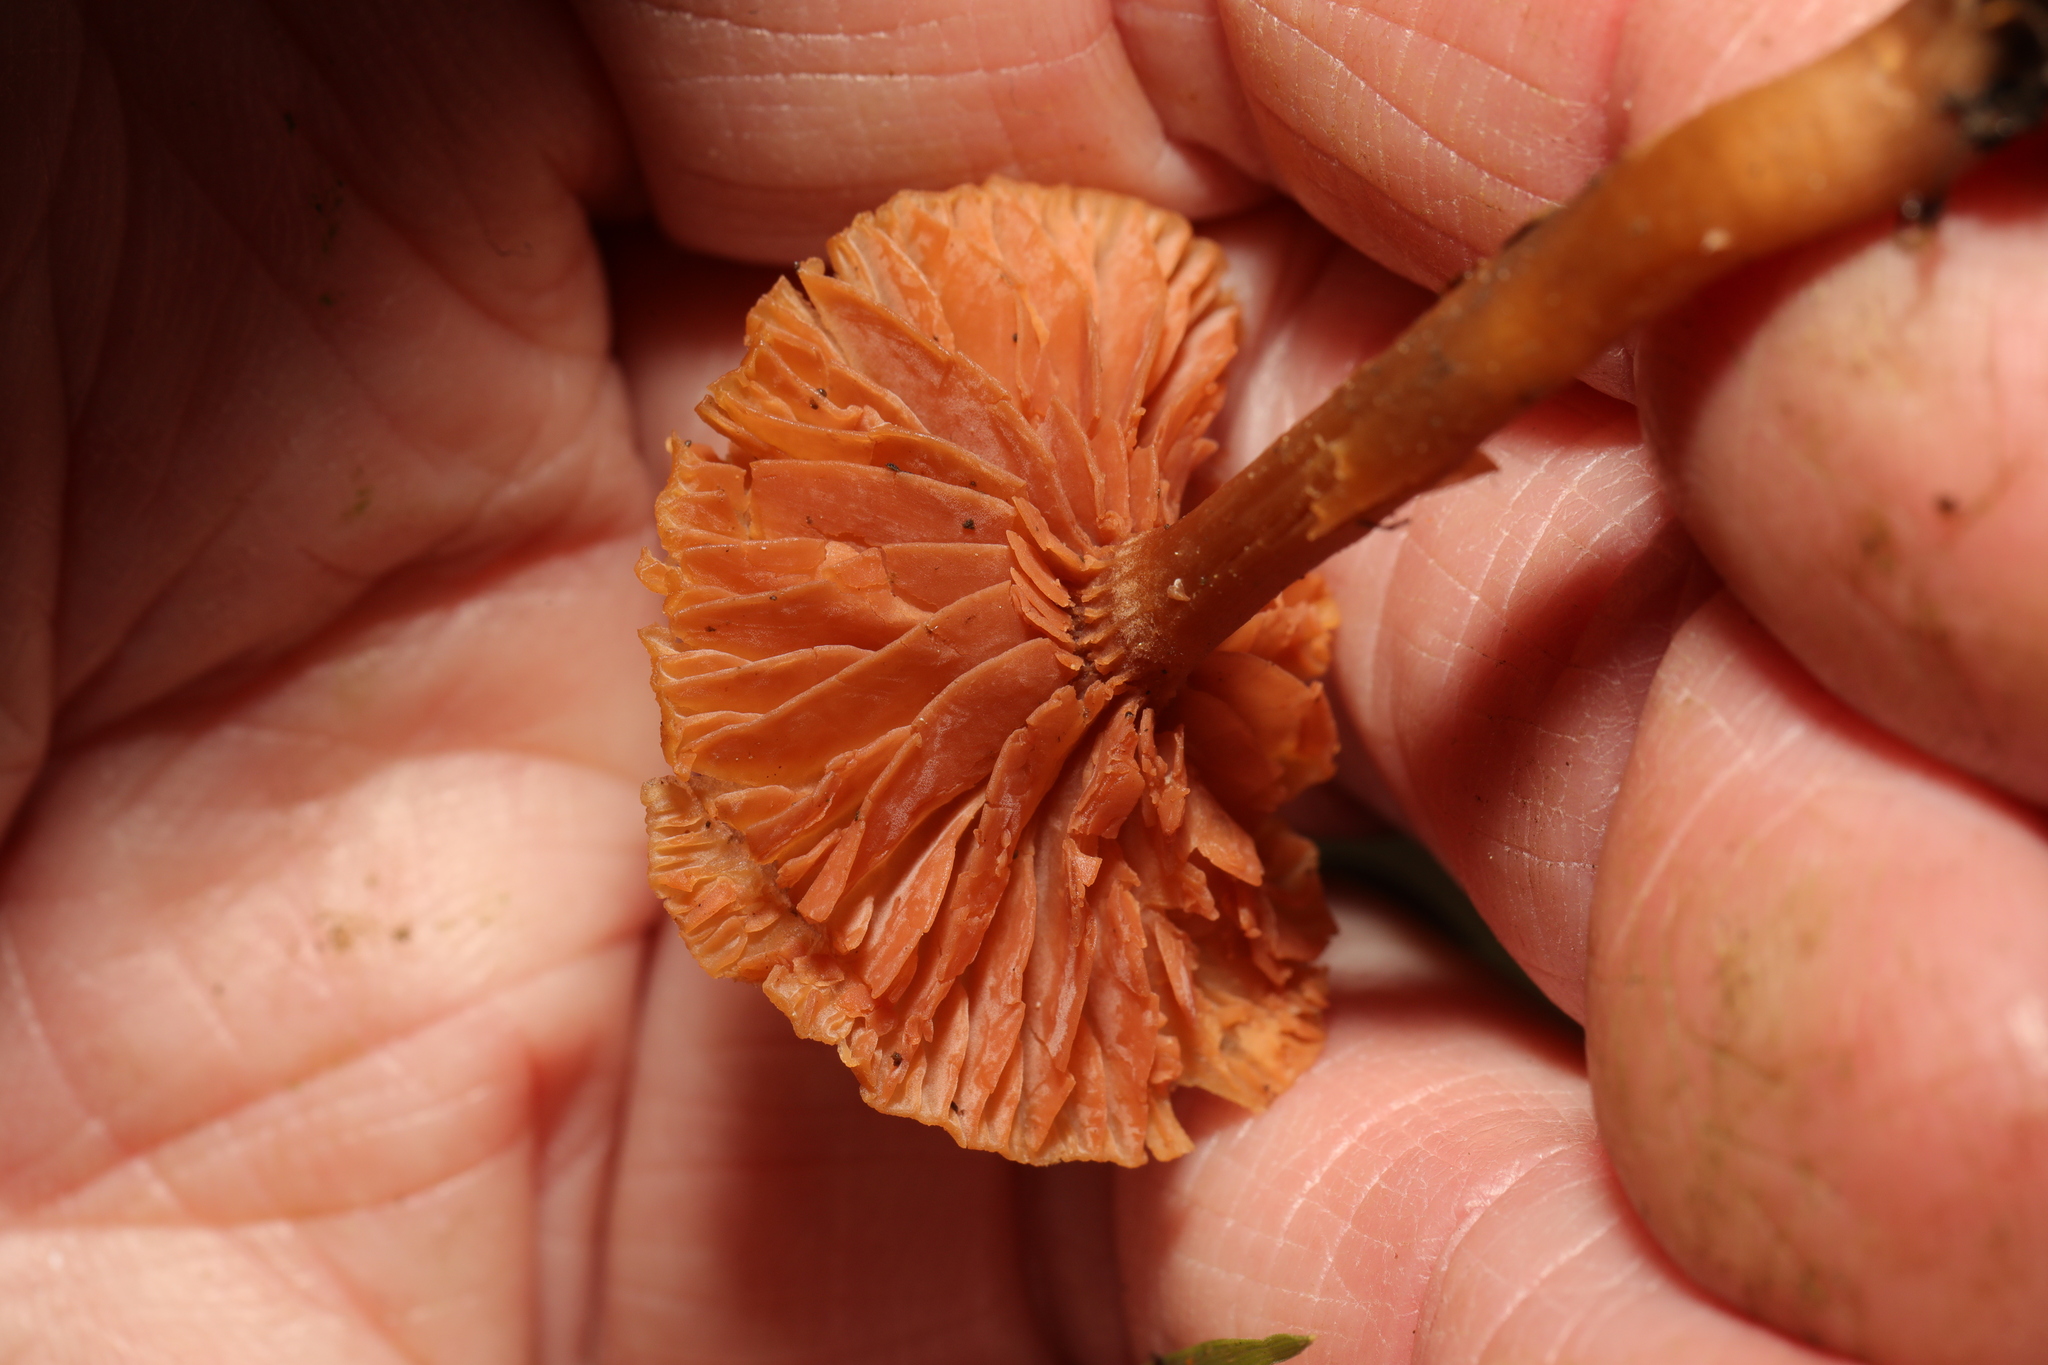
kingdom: Fungi
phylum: Basidiomycota
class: Agaricomycetes
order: Agaricales
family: Hydnangiaceae
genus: Laccaria
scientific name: Laccaria laccata
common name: Deceiver
